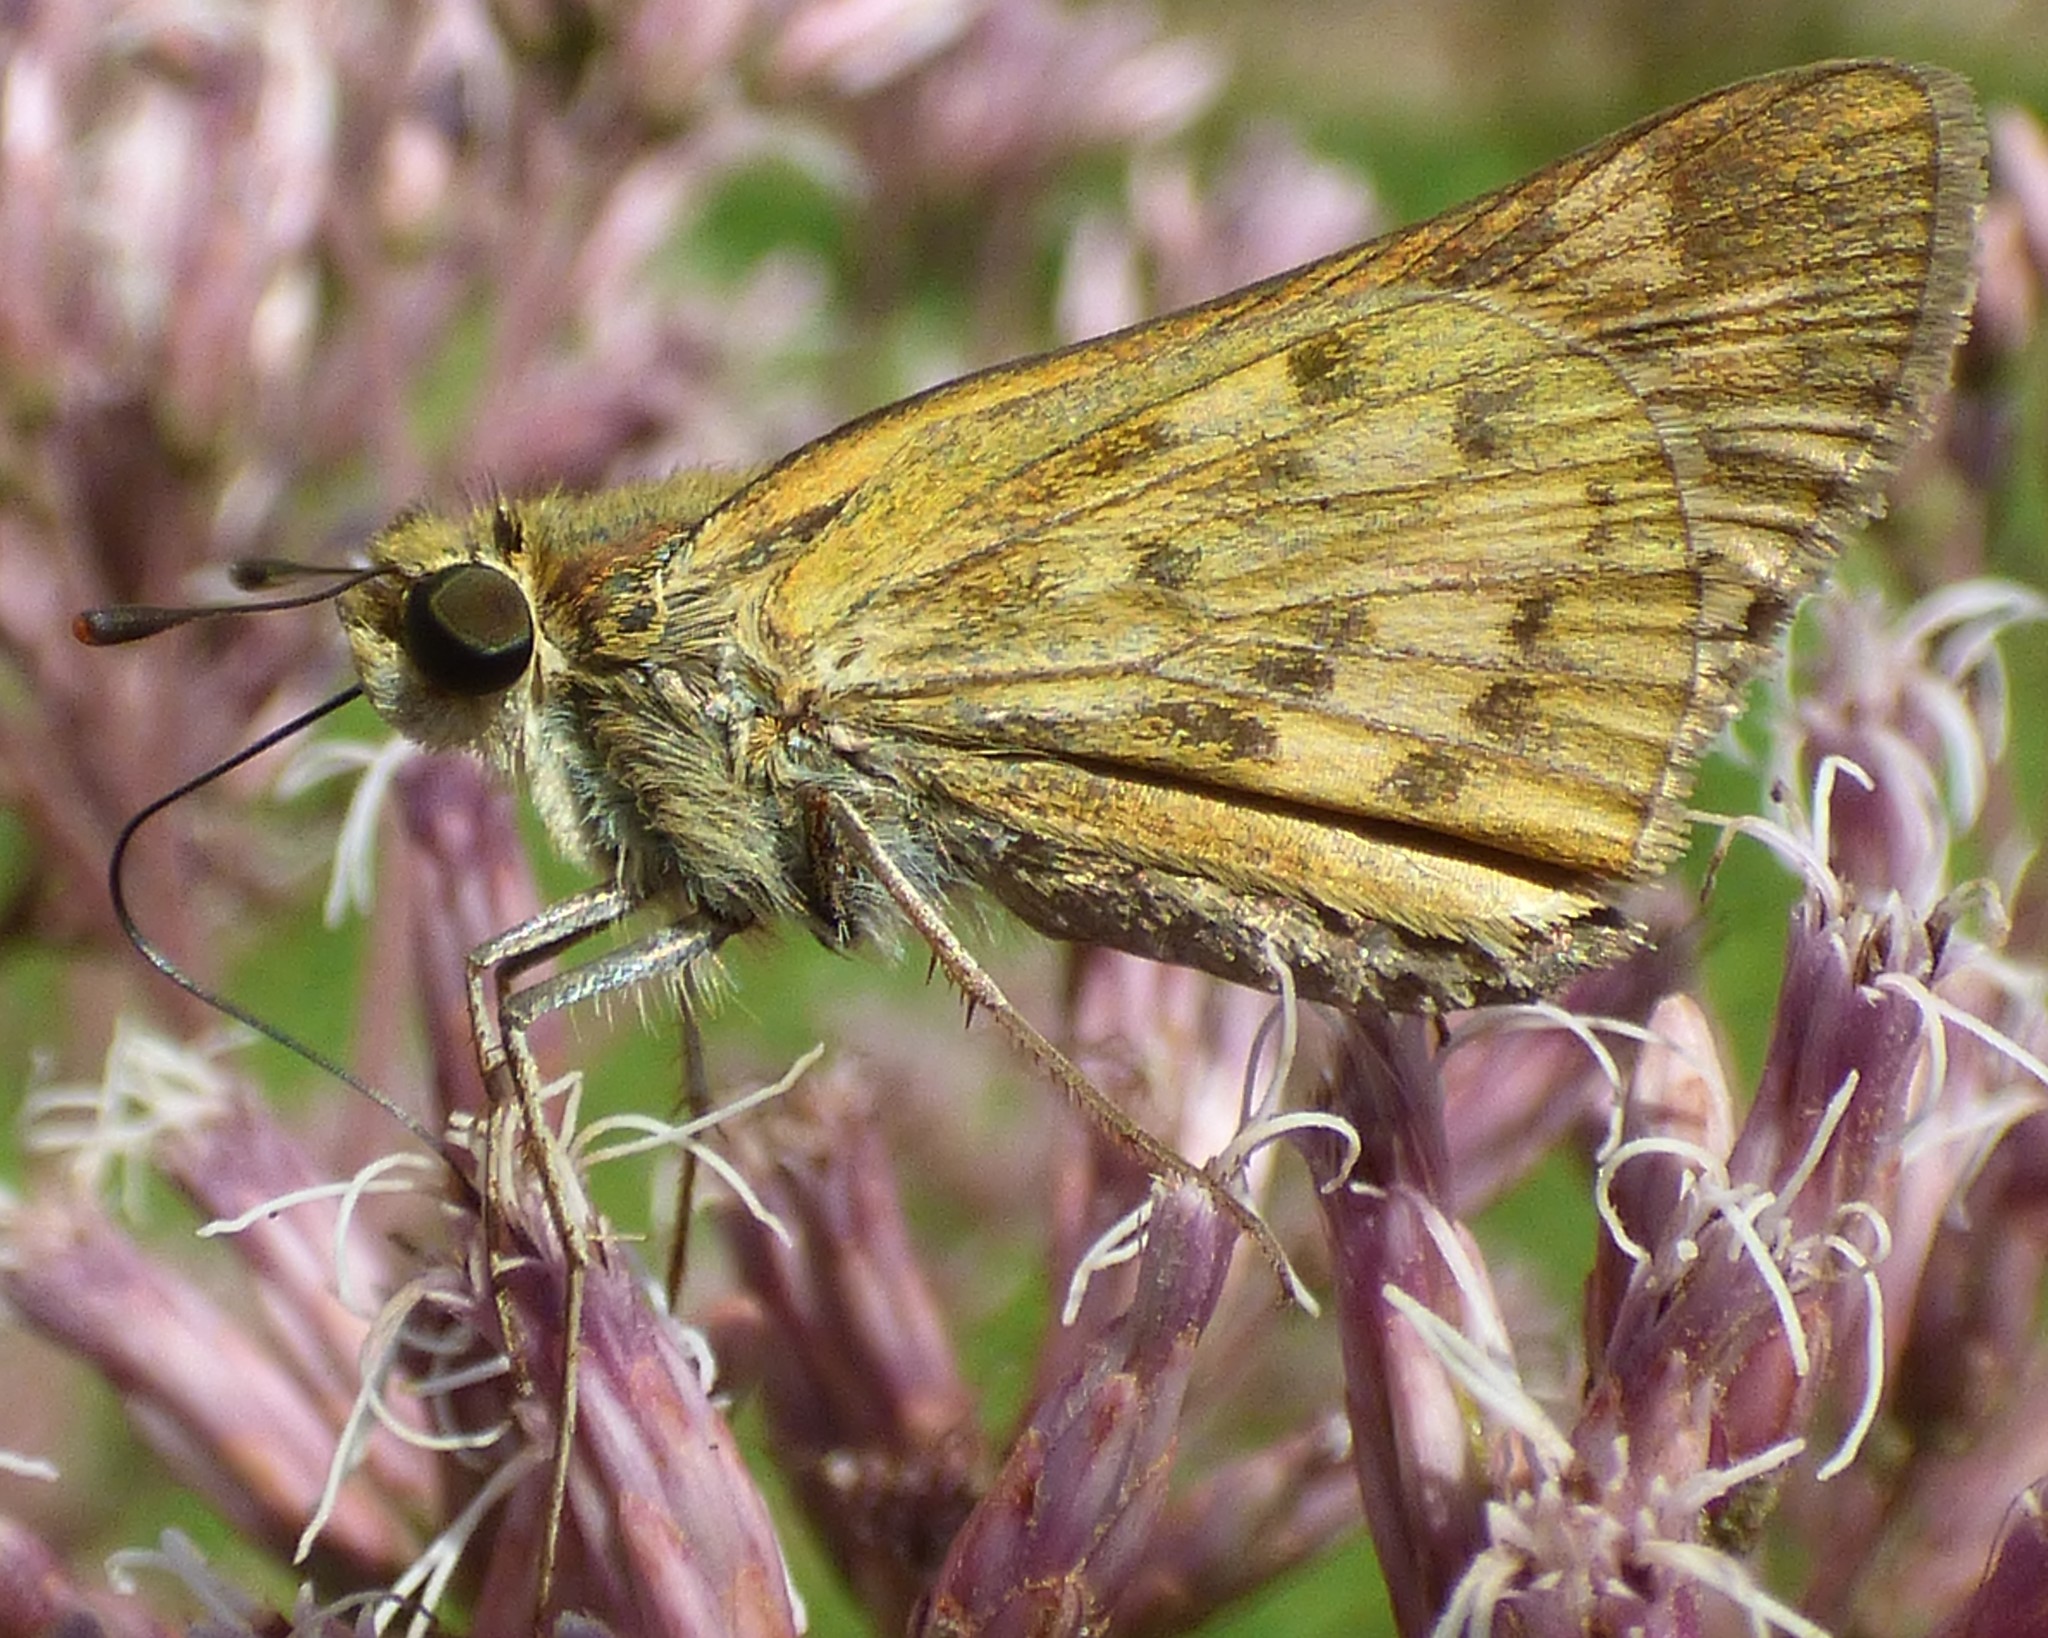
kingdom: Animalia
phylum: Arthropoda
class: Insecta
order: Lepidoptera
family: Hesperiidae
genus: Hylephila
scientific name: Hylephila phyleus
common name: Fiery skipper
